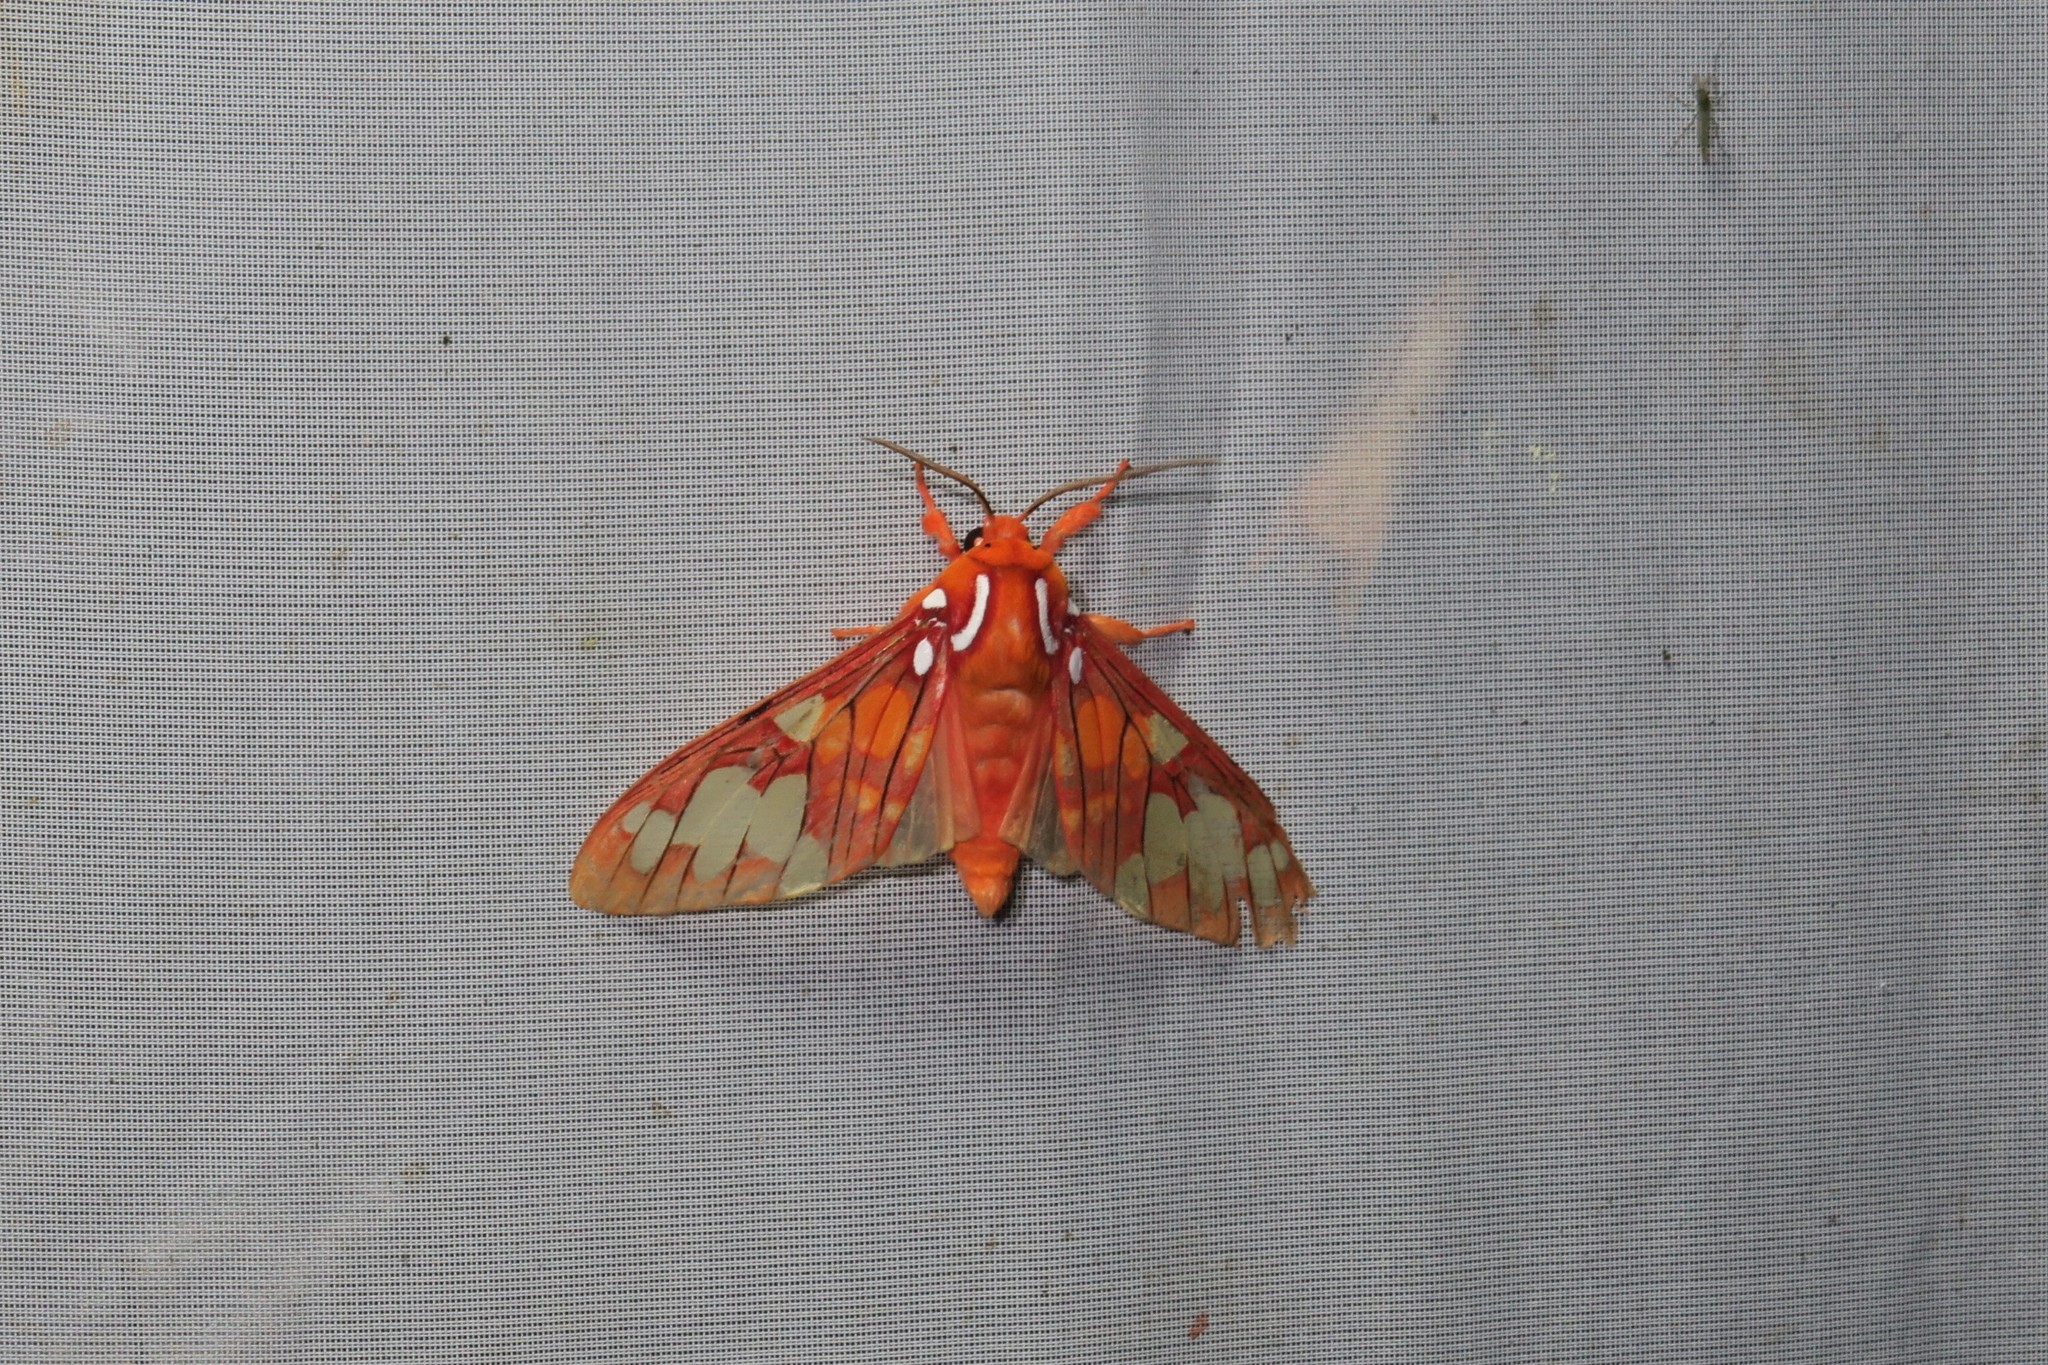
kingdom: Animalia
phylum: Arthropoda
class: Insecta
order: Lepidoptera
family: Erebidae
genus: Echeta
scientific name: Echeta grandis
